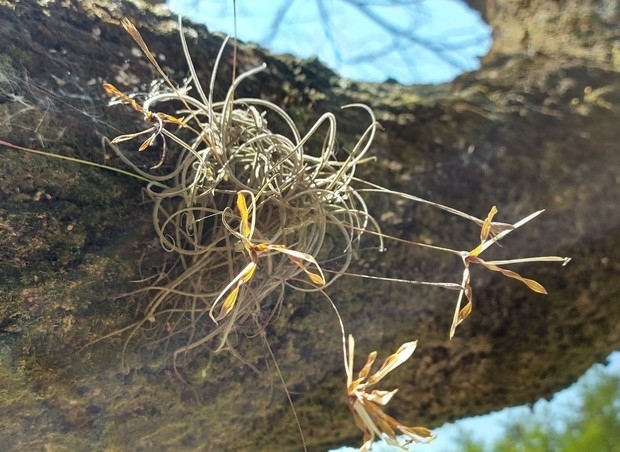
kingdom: Plantae
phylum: Tracheophyta
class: Liliopsida
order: Poales
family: Bromeliaceae
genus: Tillandsia
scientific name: Tillandsia recurvata
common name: Small ballmoss
